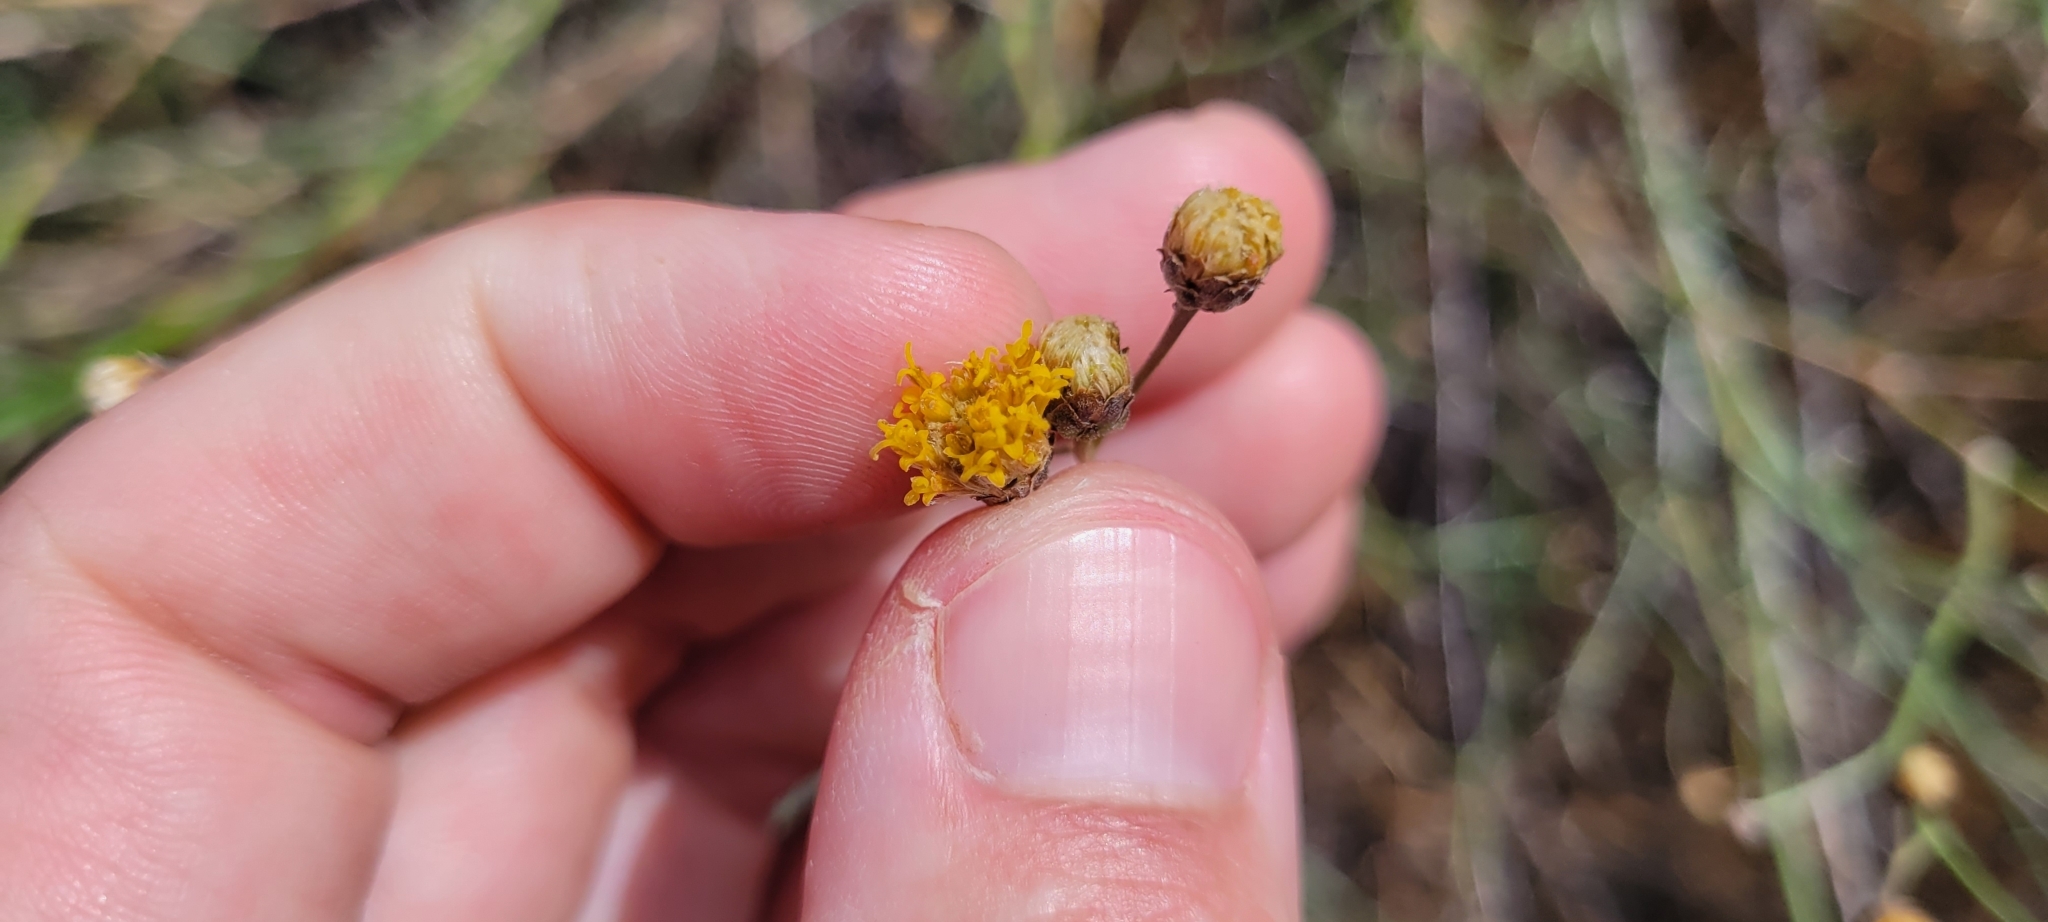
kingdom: Plantae
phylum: Tracheophyta
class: Magnoliopsida
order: Asterales
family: Asteraceae
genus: Bebbia
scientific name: Bebbia juncea
